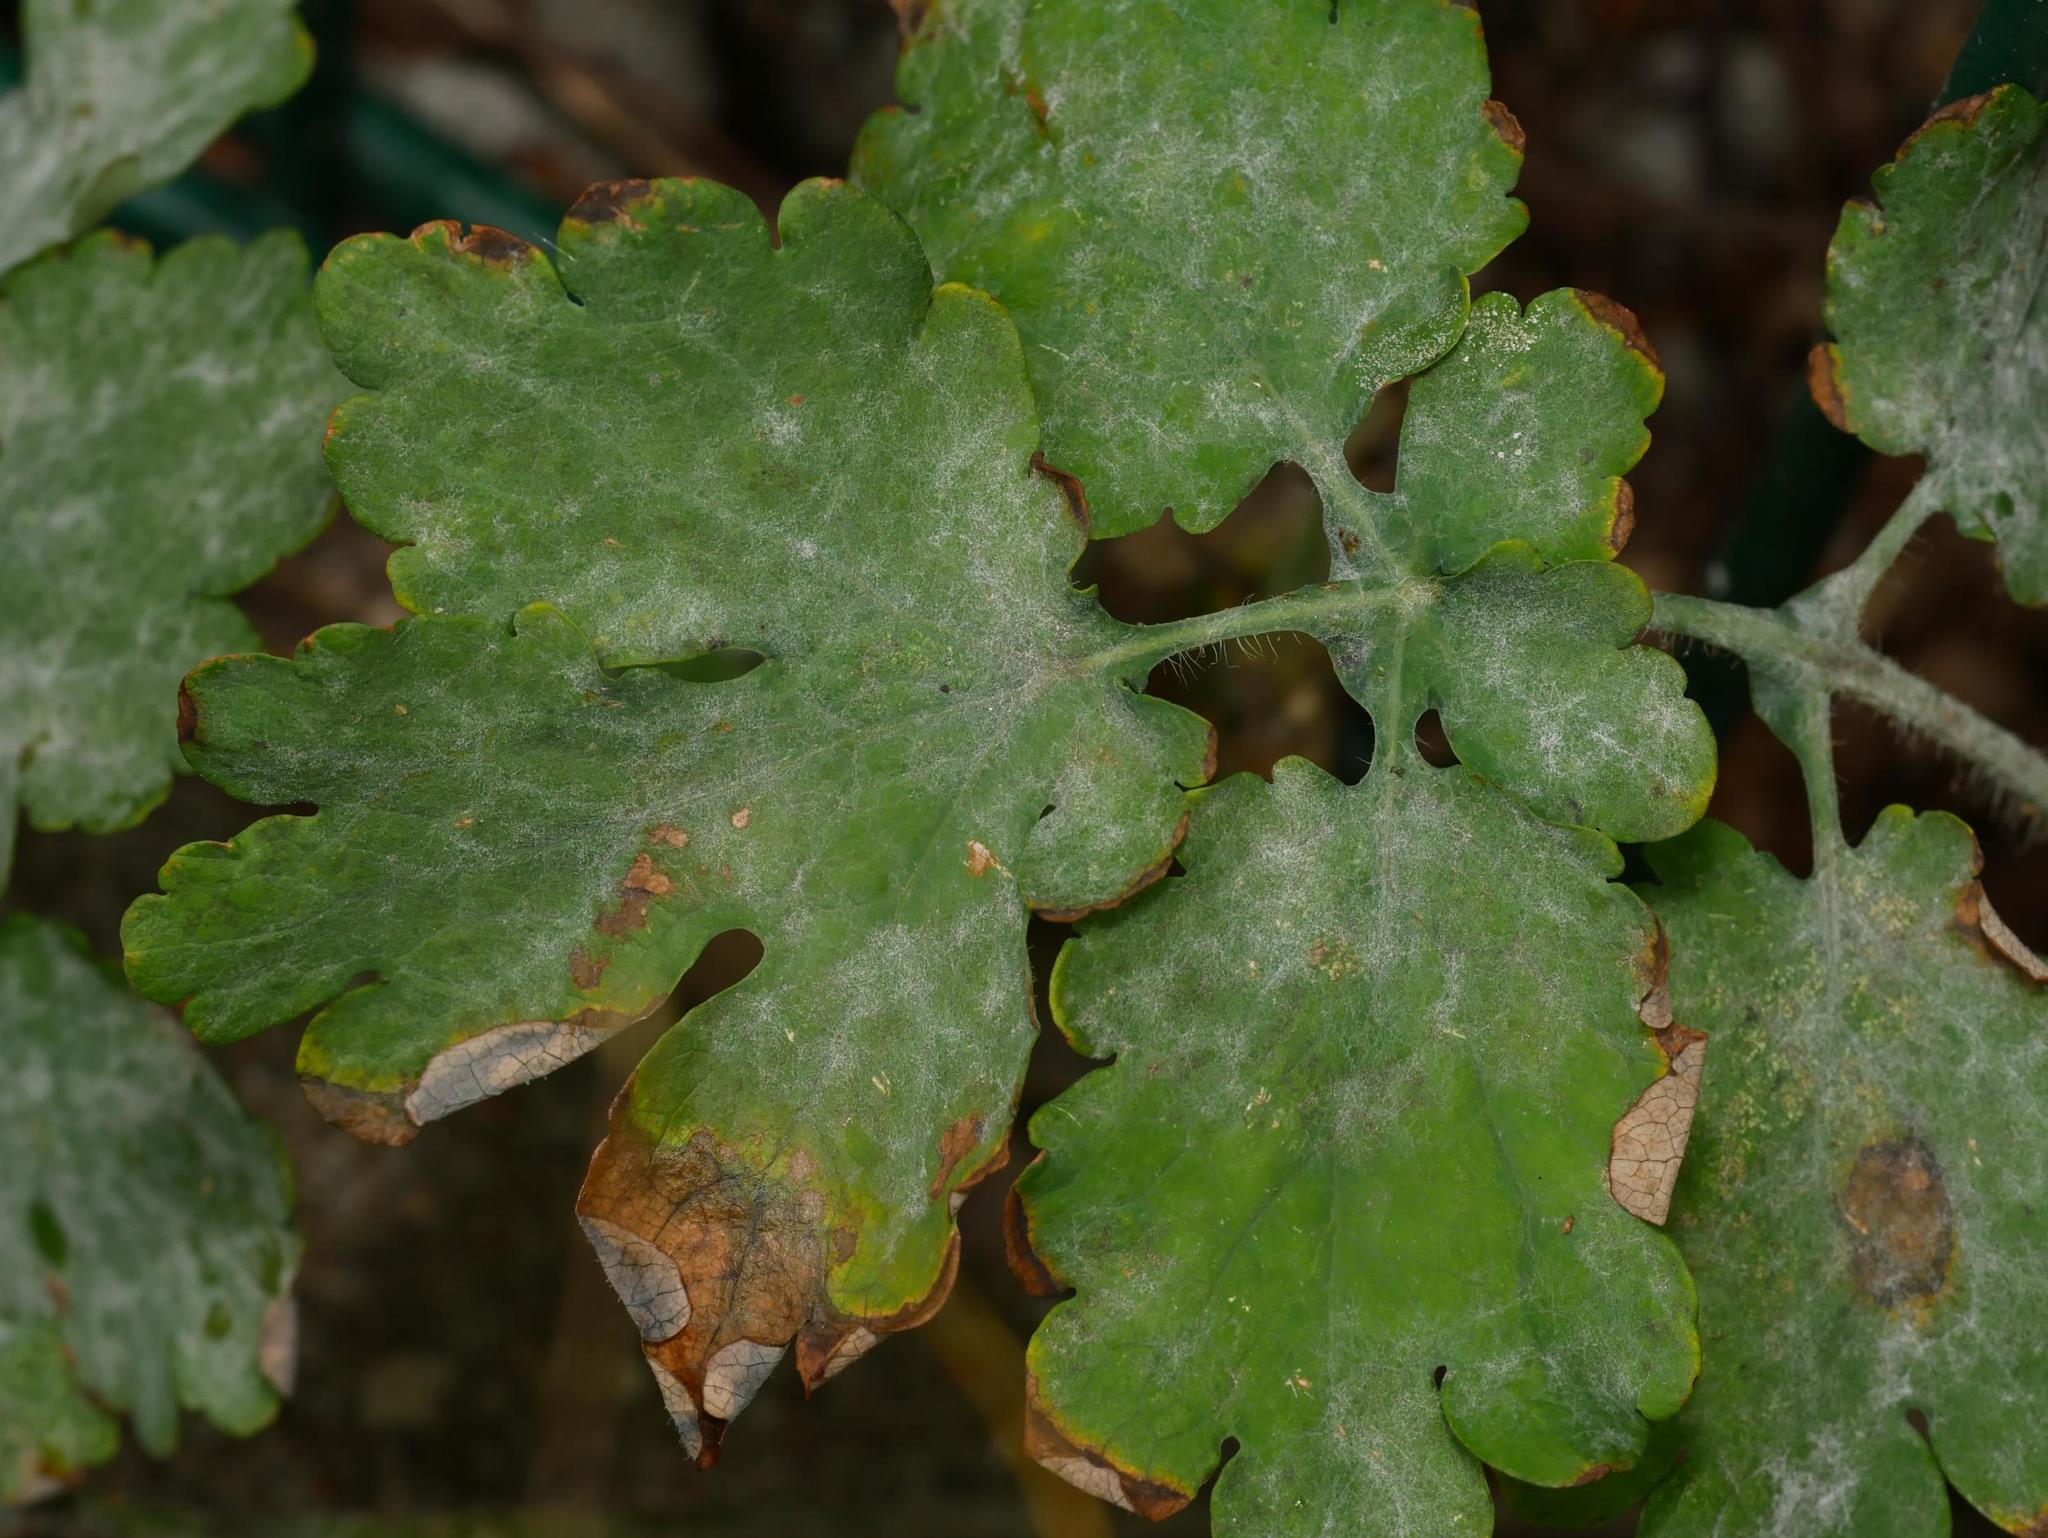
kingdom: Fungi
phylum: Ascomycota
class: Leotiomycetes
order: Helotiales
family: Erysiphaceae
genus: Erysiphe
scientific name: Erysiphe macleayae
